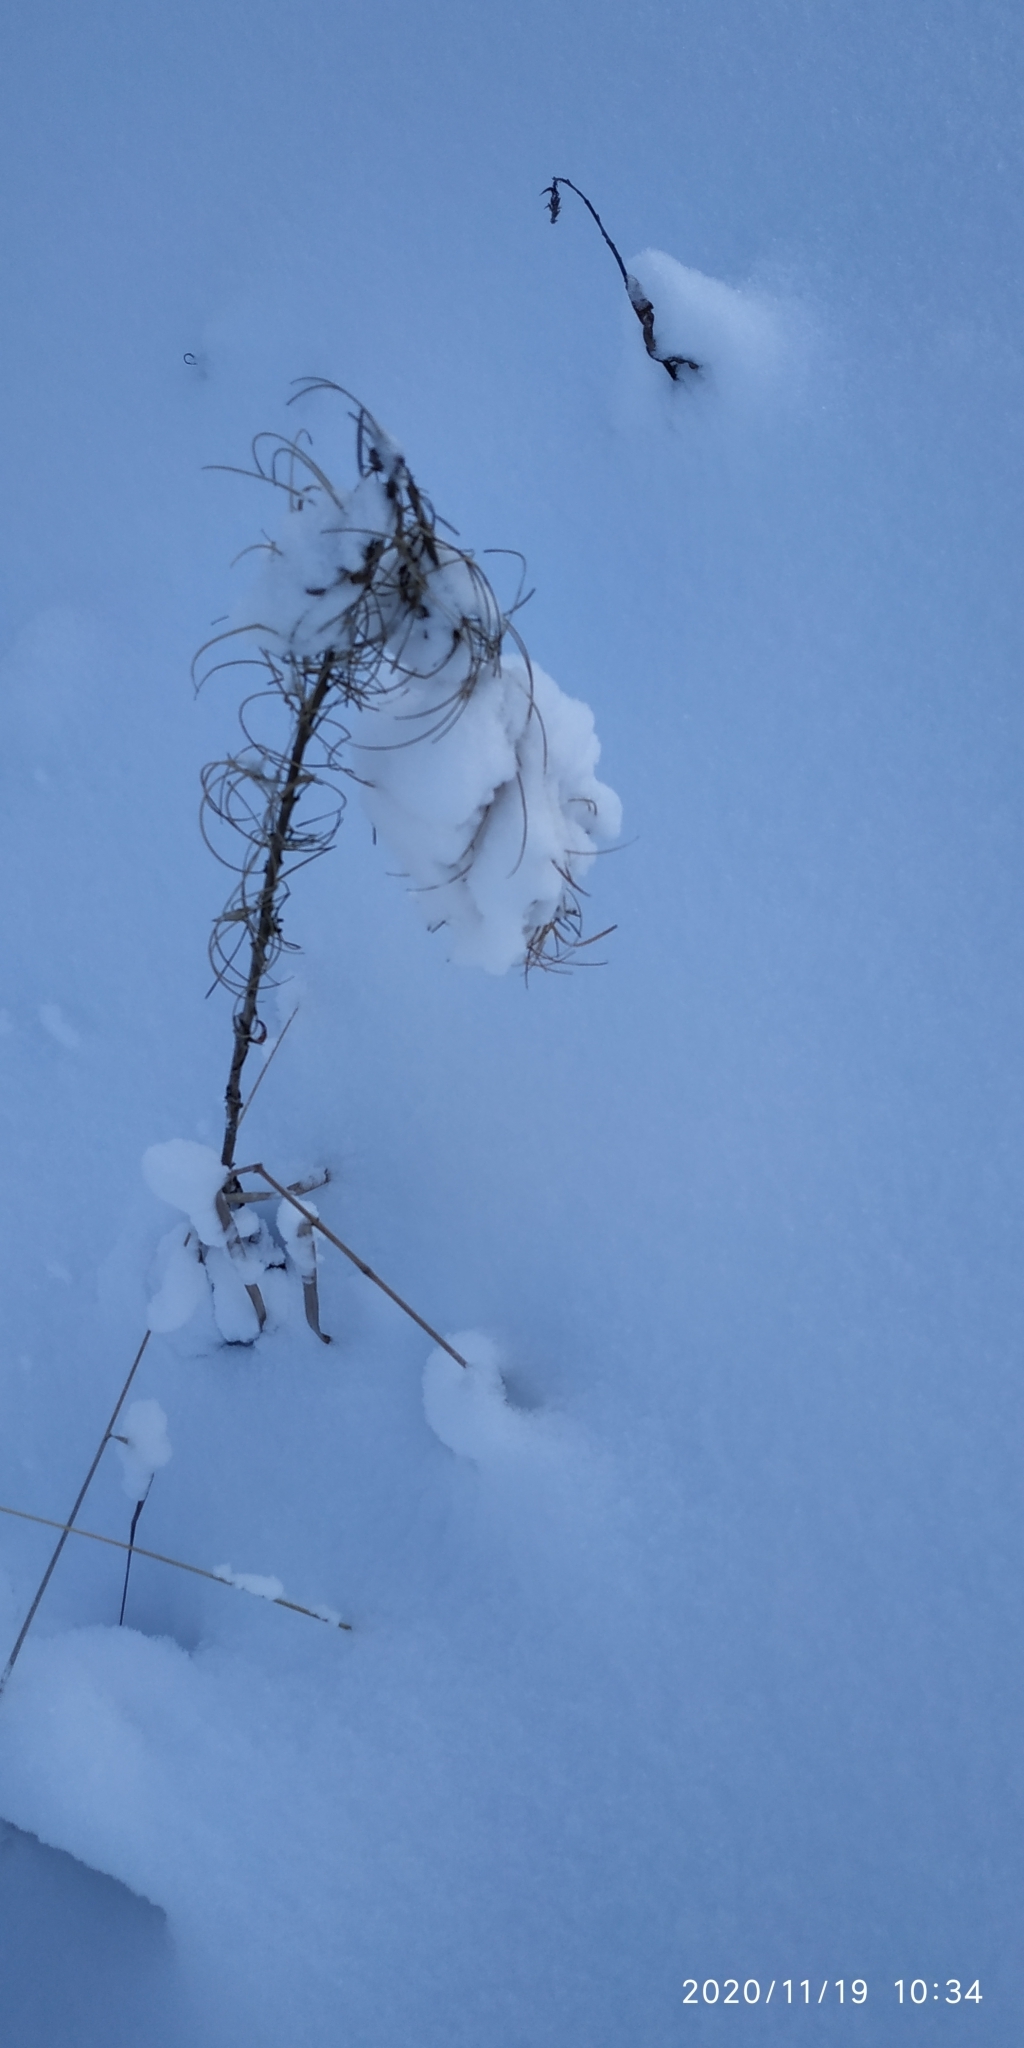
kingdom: Plantae
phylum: Tracheophyta
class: Magnoliopsida
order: Myrtales
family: Onagraceae
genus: Chamaenerion
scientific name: Chamaenerion angustifolium
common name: Fireweed
